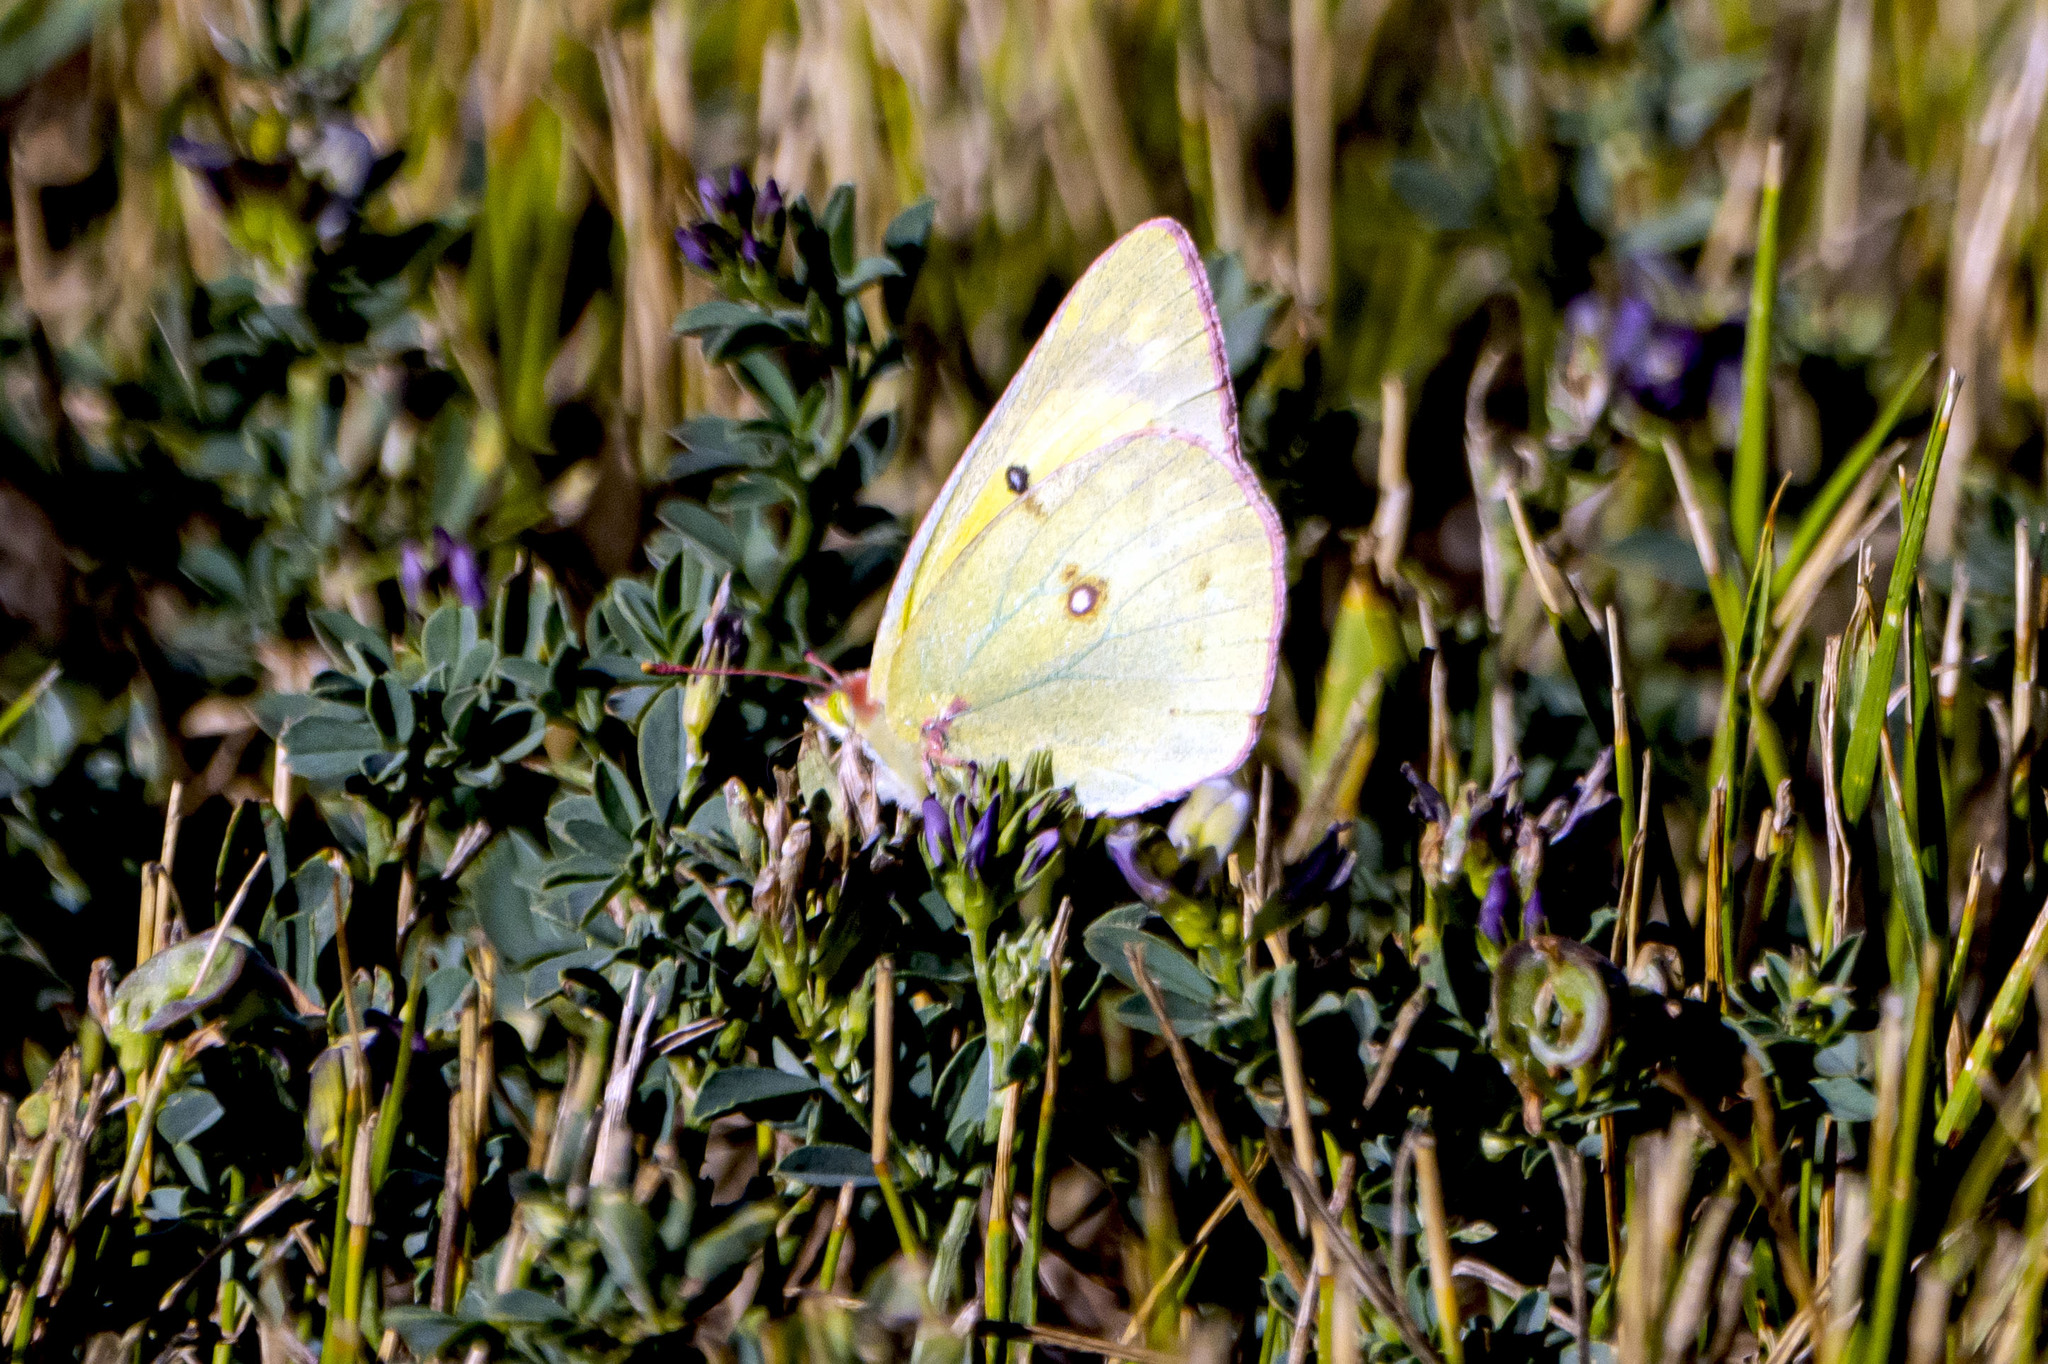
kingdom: Animalia
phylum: Arthropoda
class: Insecta
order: Lepidoptera
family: Pieridae
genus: Colias
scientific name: Colias eurytheme
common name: Alfalfa butterfly
